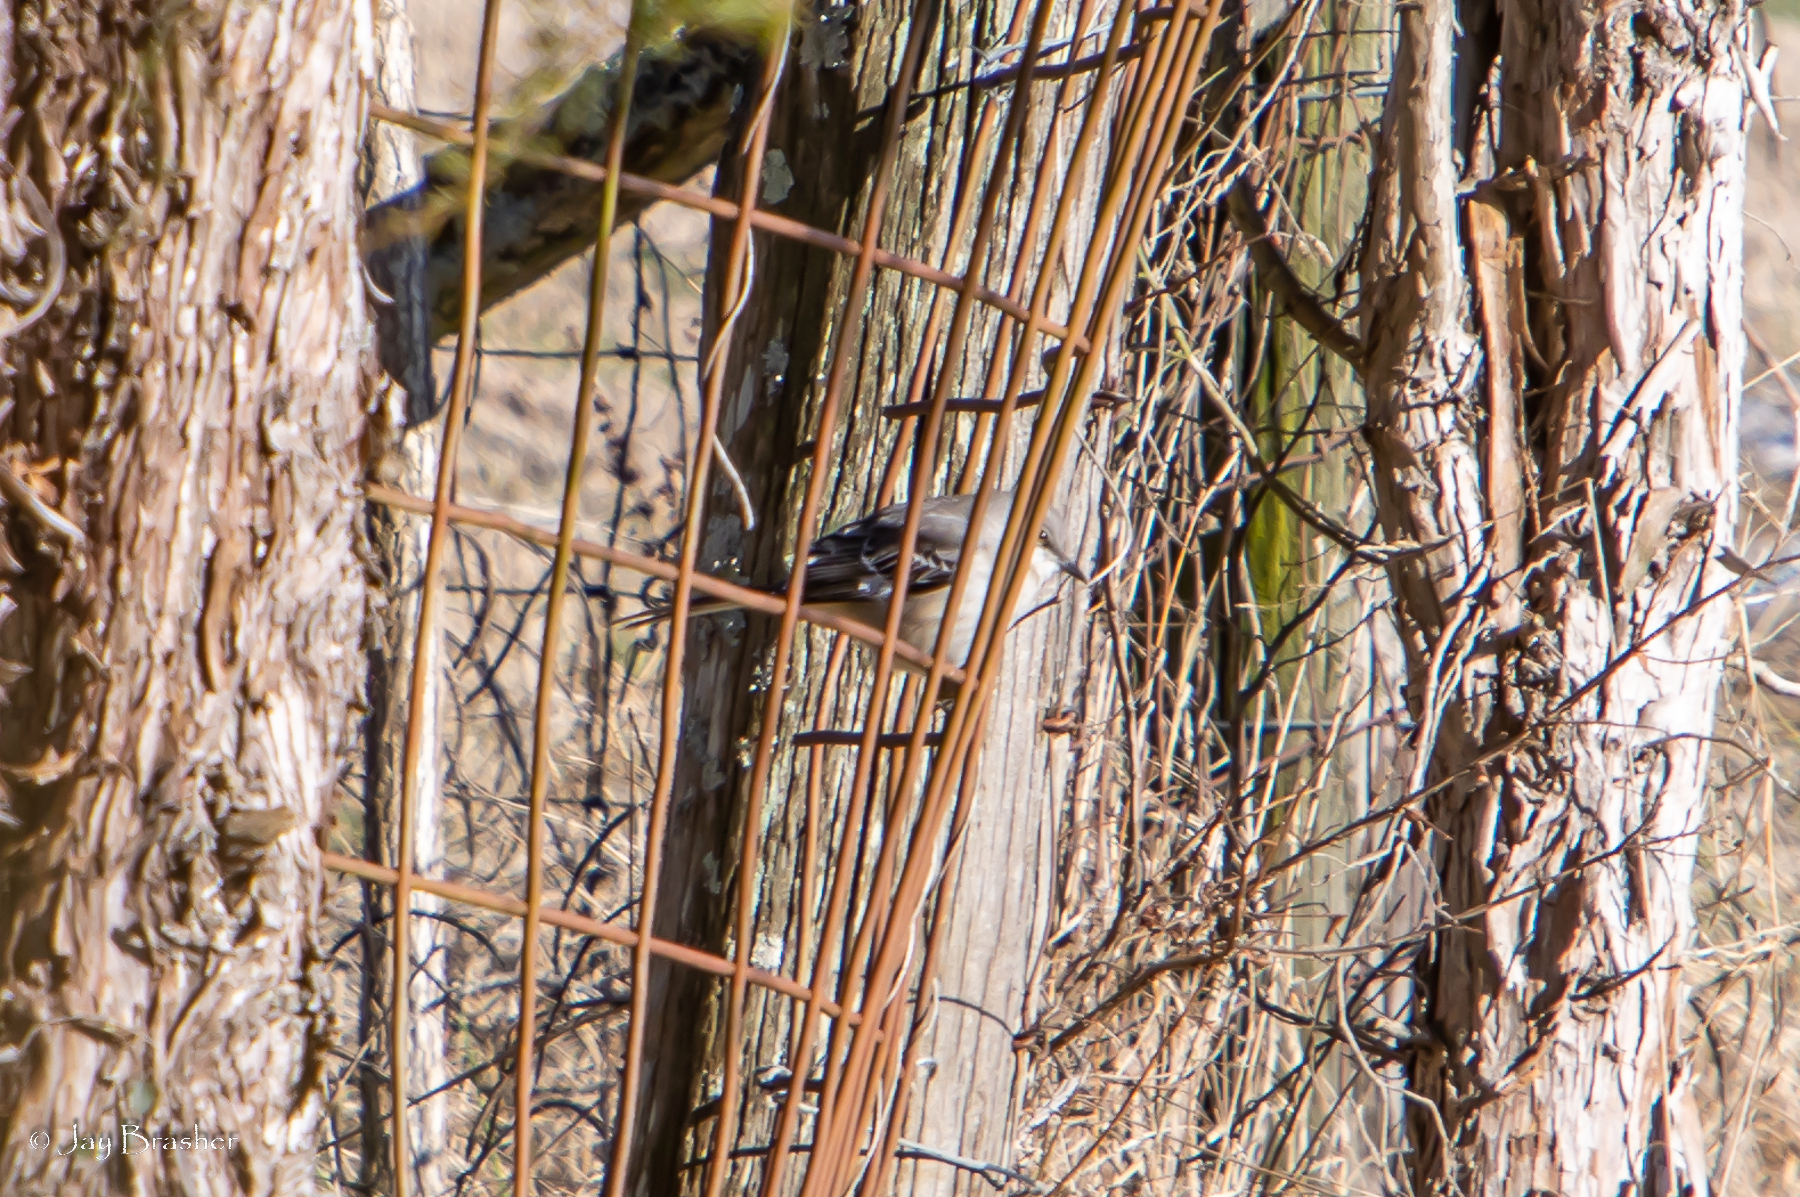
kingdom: Animalia
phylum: Chordata
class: Aves
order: Passeriformes
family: Mimidae
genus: Mimus
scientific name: Mimus polyglottos
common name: Northern mockingbird
